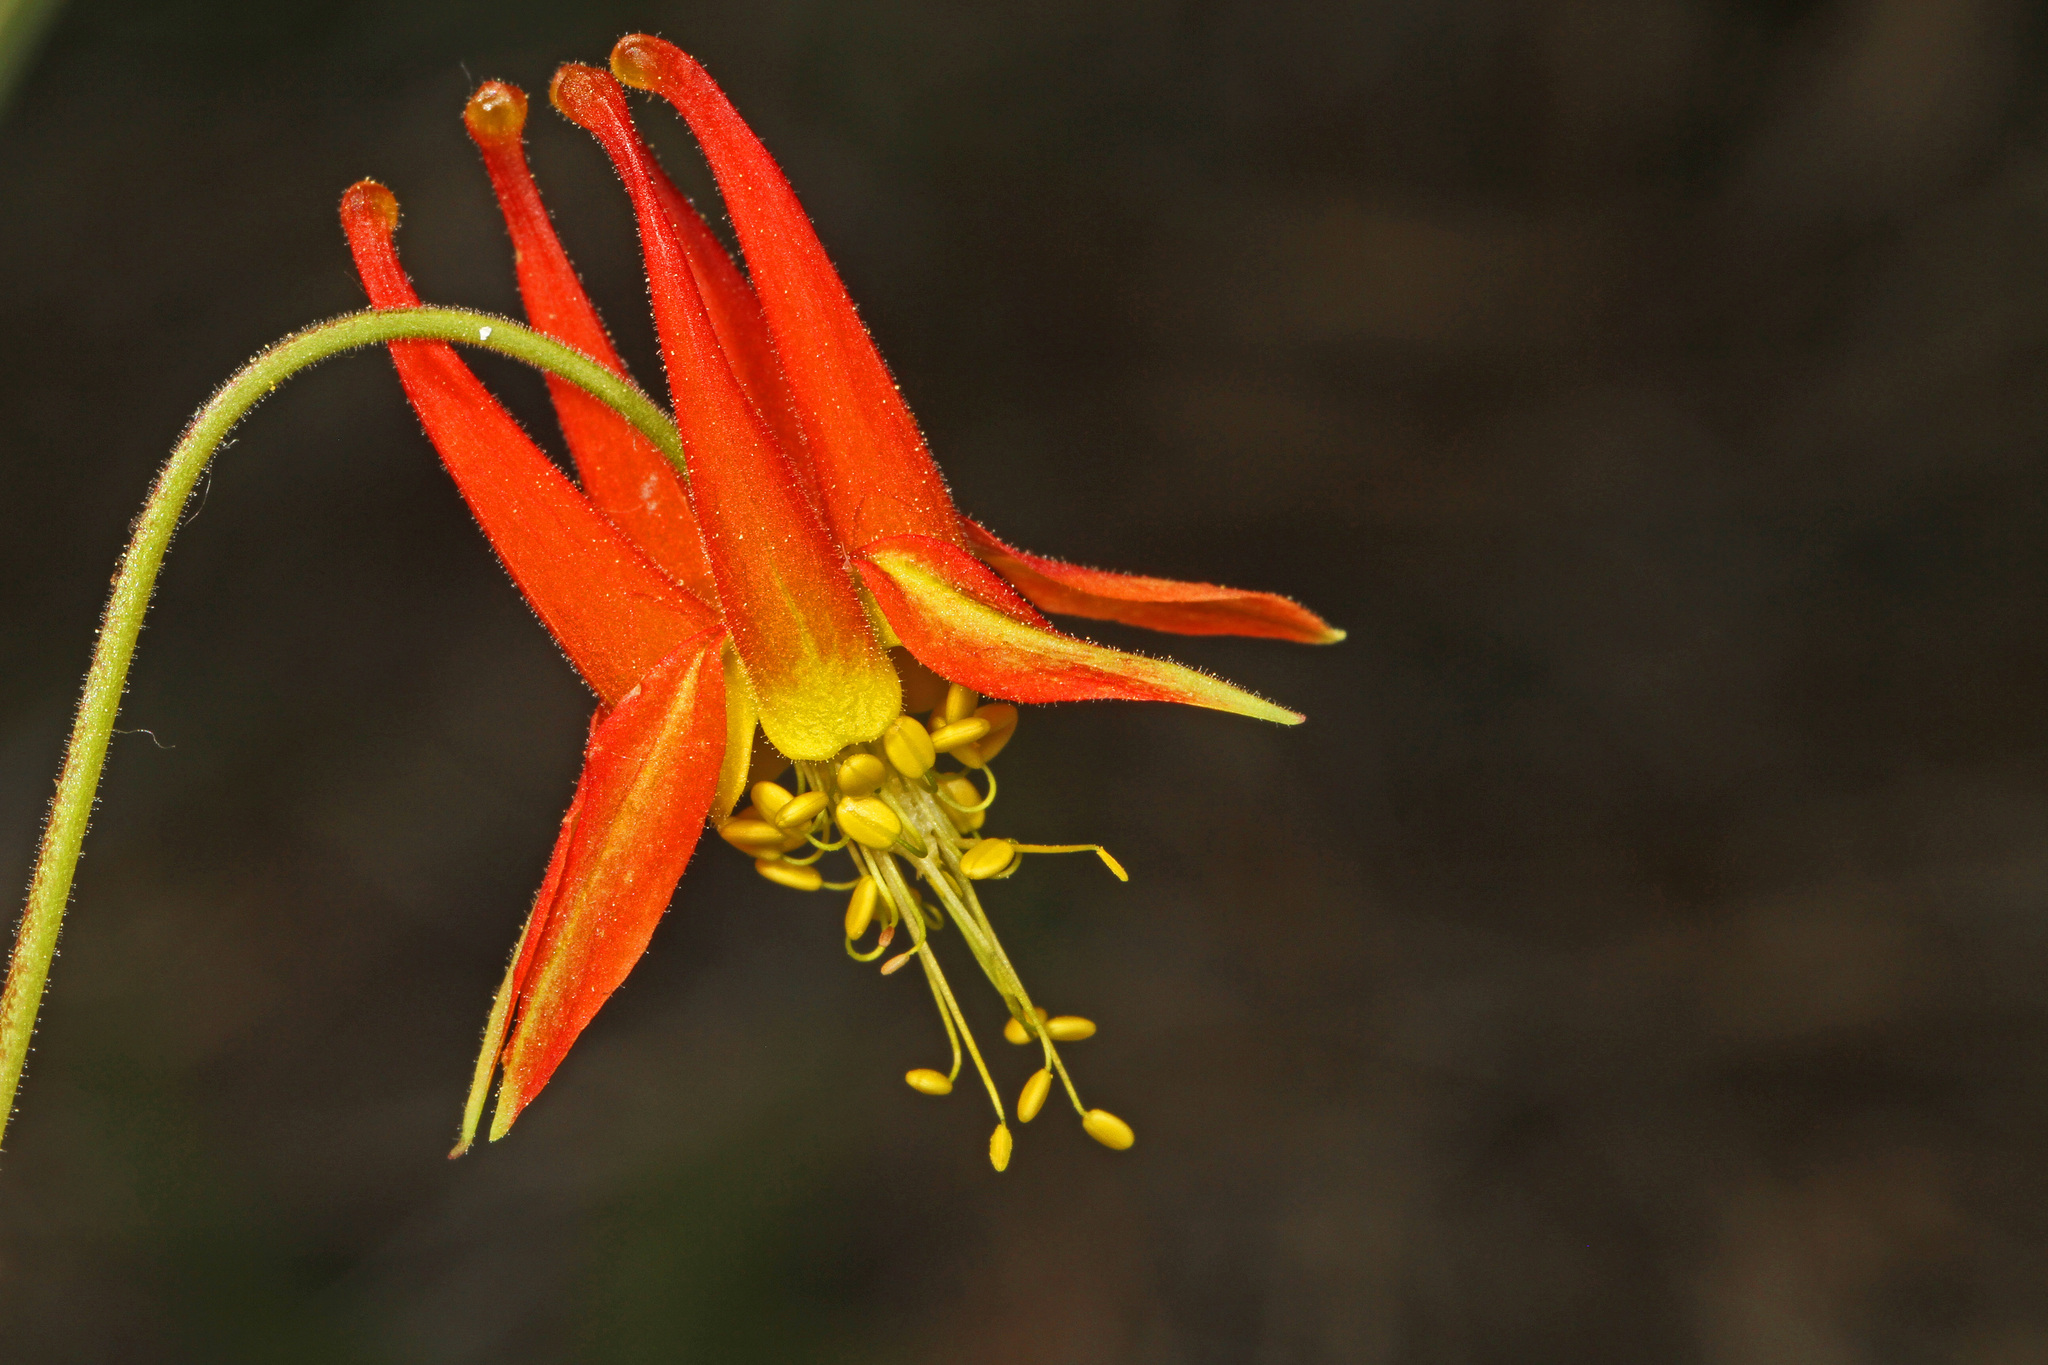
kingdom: Plantae
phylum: Tracheophyta
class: Magnoliopsida
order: Ranunculales
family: Ranunculaceae
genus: Aquilegia
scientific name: Aquilegia formosa
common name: Sitka columbine
